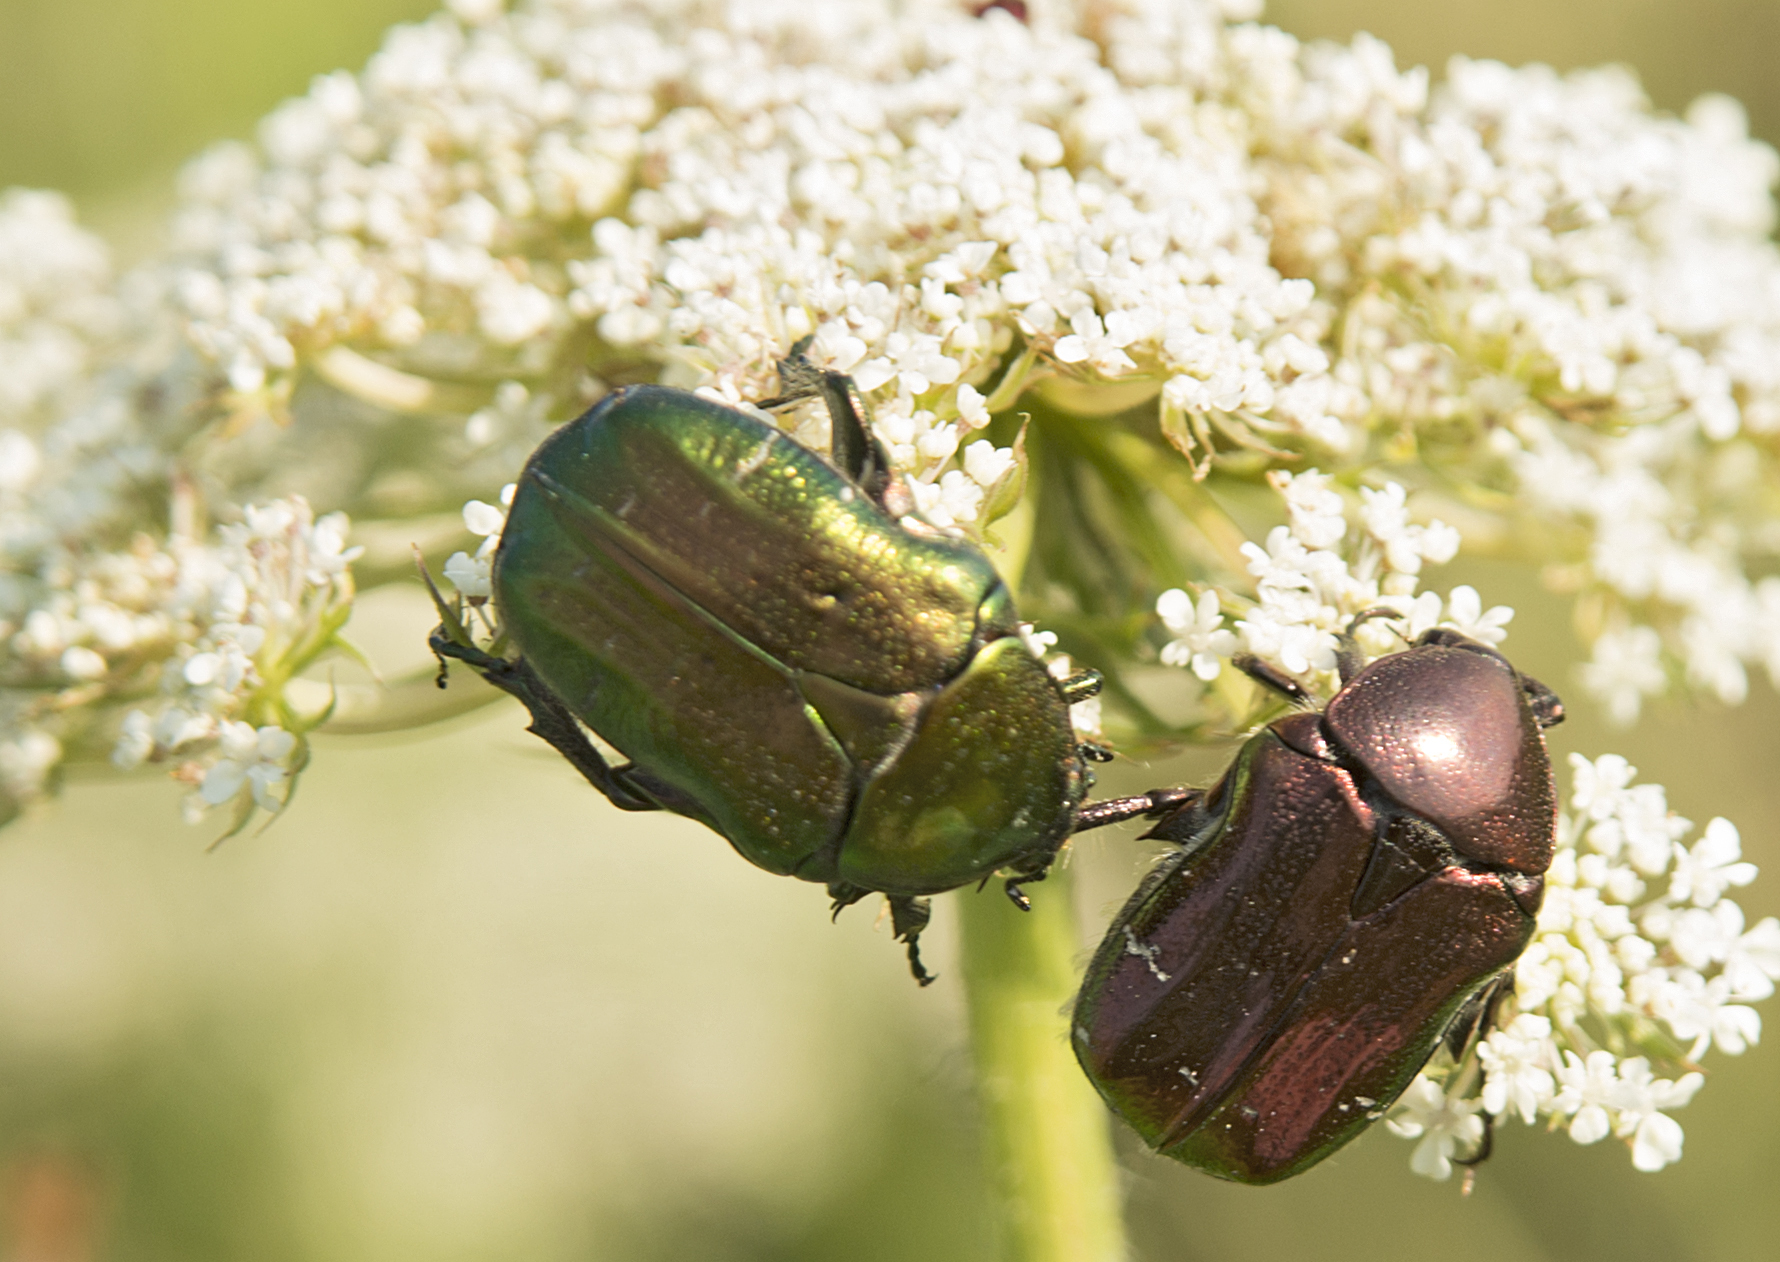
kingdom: Animalia
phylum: Arthropoda
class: Insecta
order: Coleoptera
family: Scarabaeidae
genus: Cetonia
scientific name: Cetonia aurata
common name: Rose chafer
